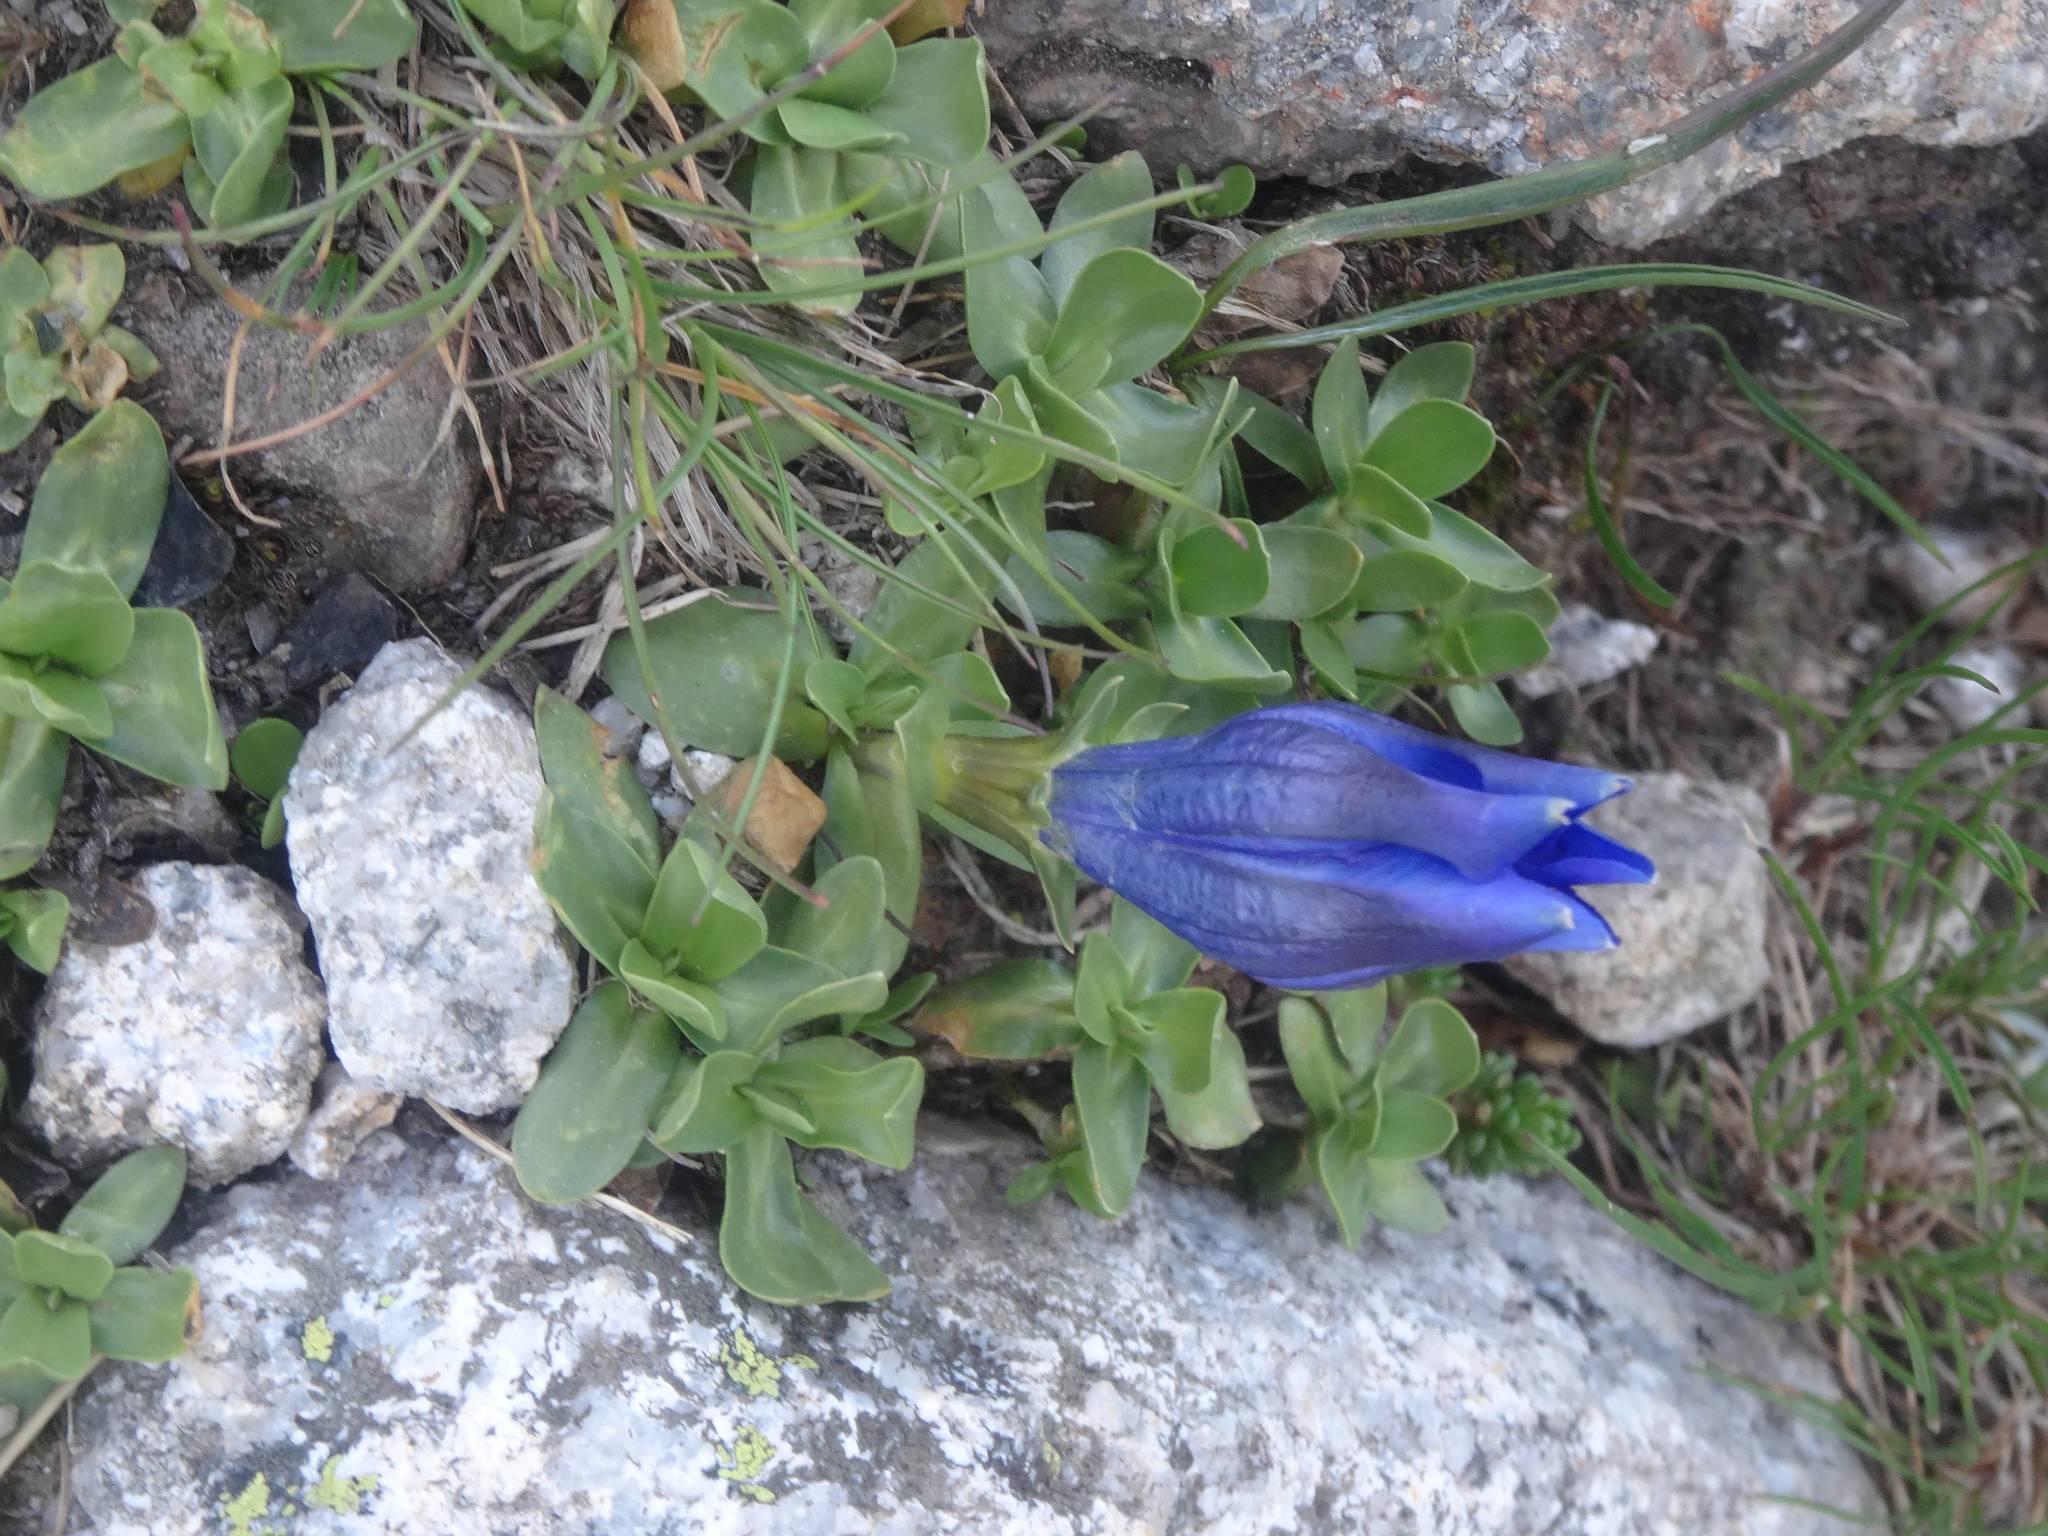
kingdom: Plantae
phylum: Tracheophyta
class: Magnoliopsida
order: Gentianales
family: Gentianaceae
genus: Gentiana
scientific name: Gentiana alpina
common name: Southern gentian
